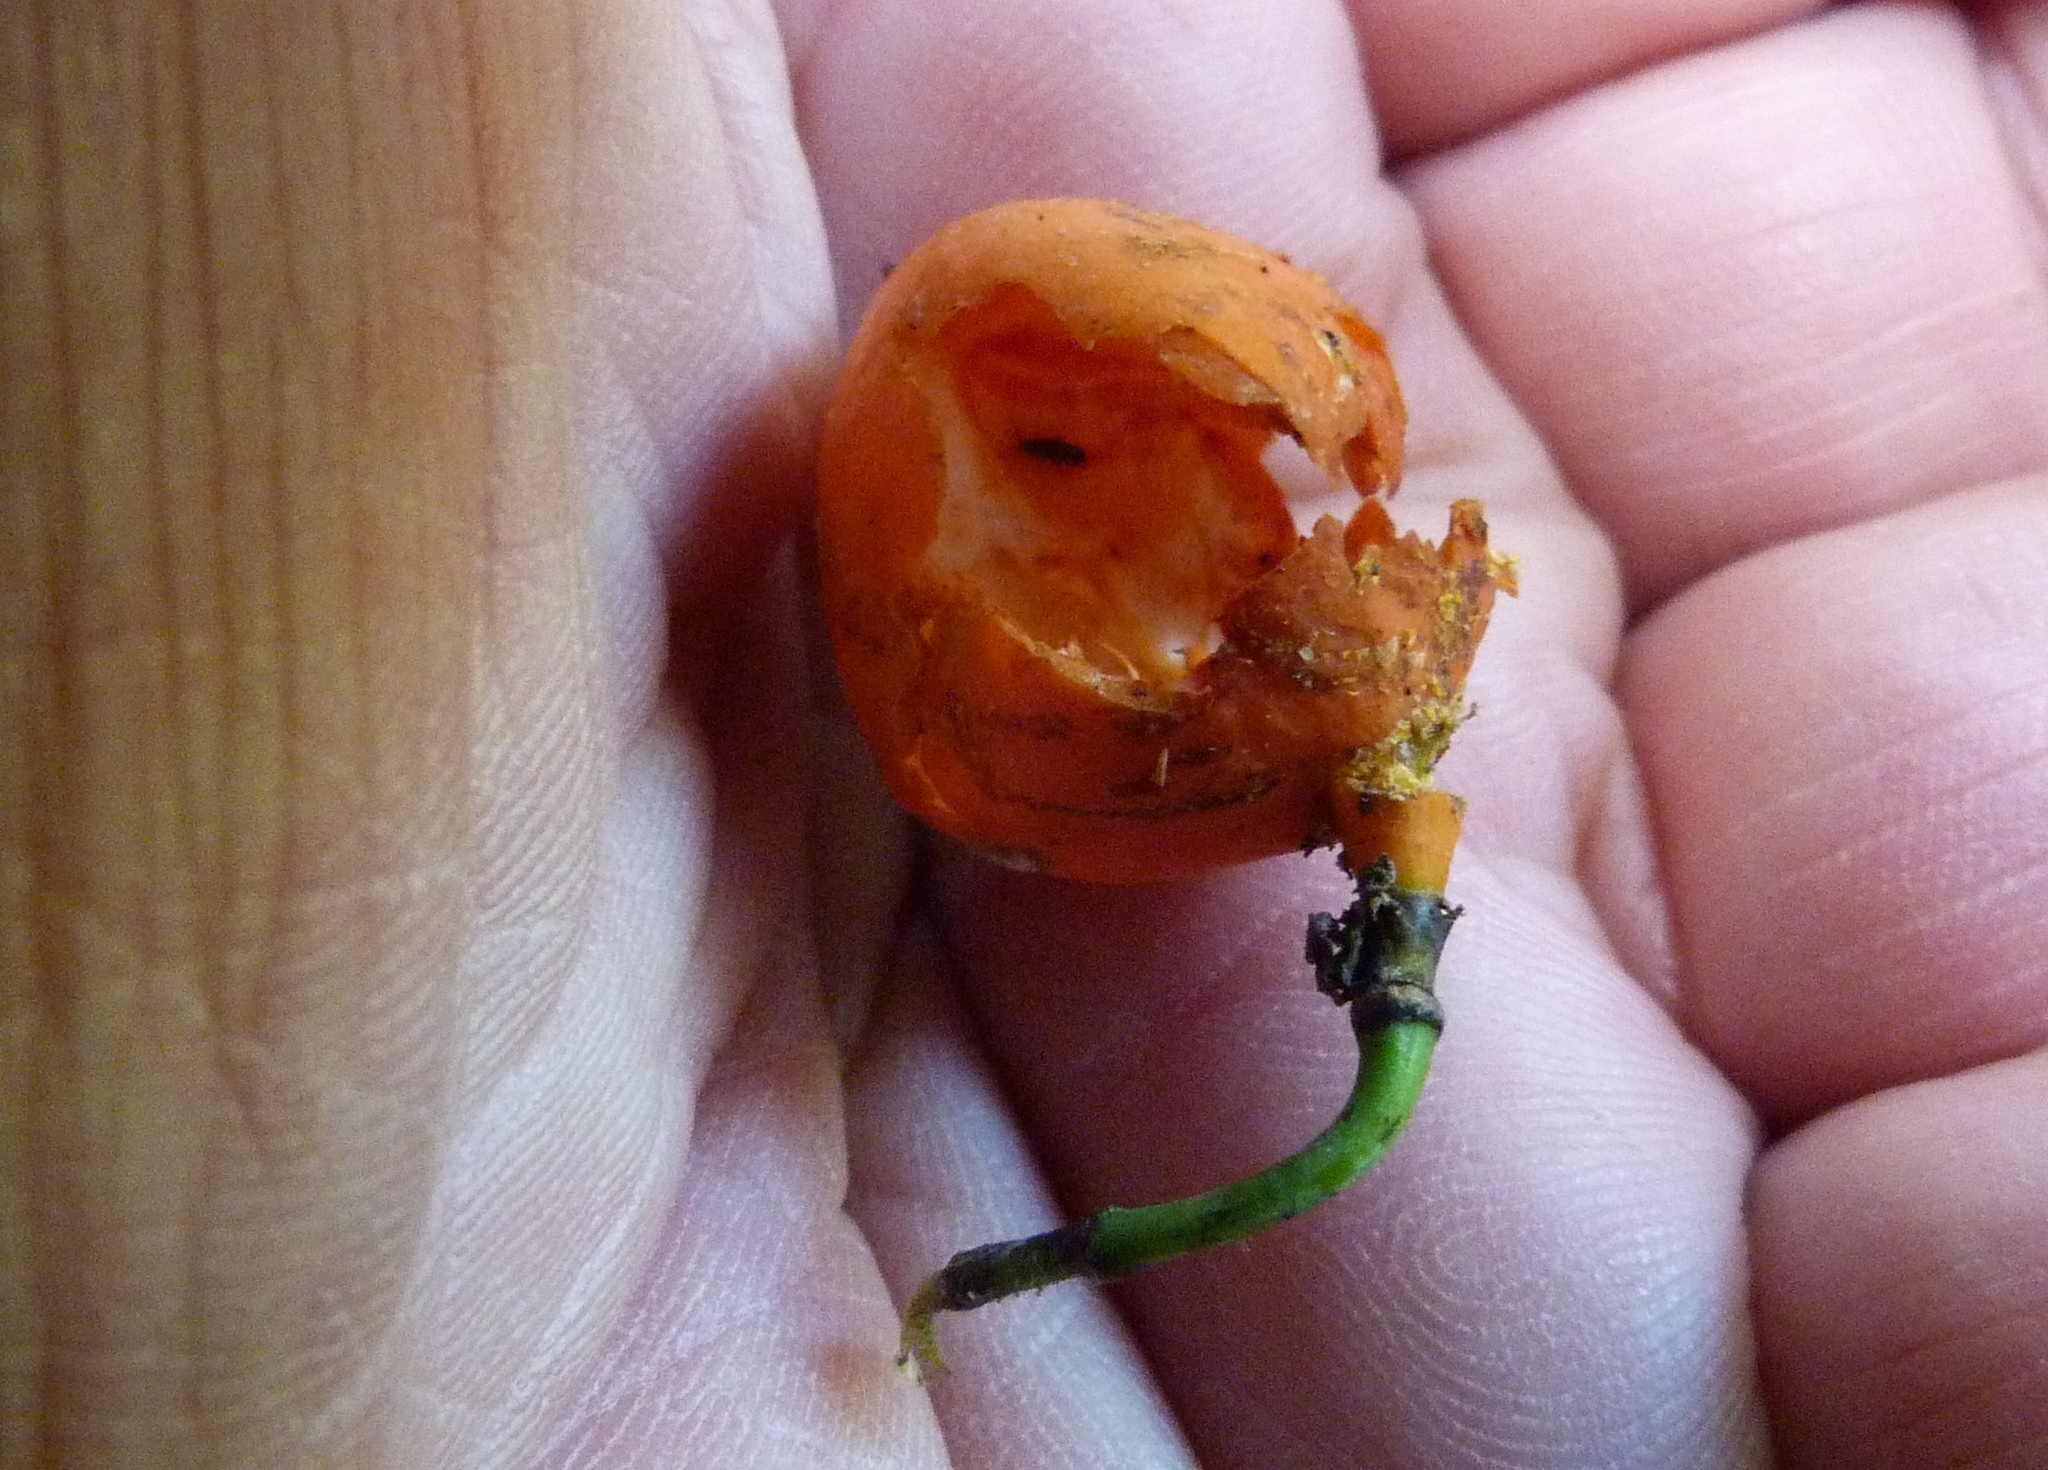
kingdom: Plantae
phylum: Tracheophyta
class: Magnoliopsida
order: Malpighiales
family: Passifloraceae
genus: Passiflora
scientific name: Passiflora tetrandra
